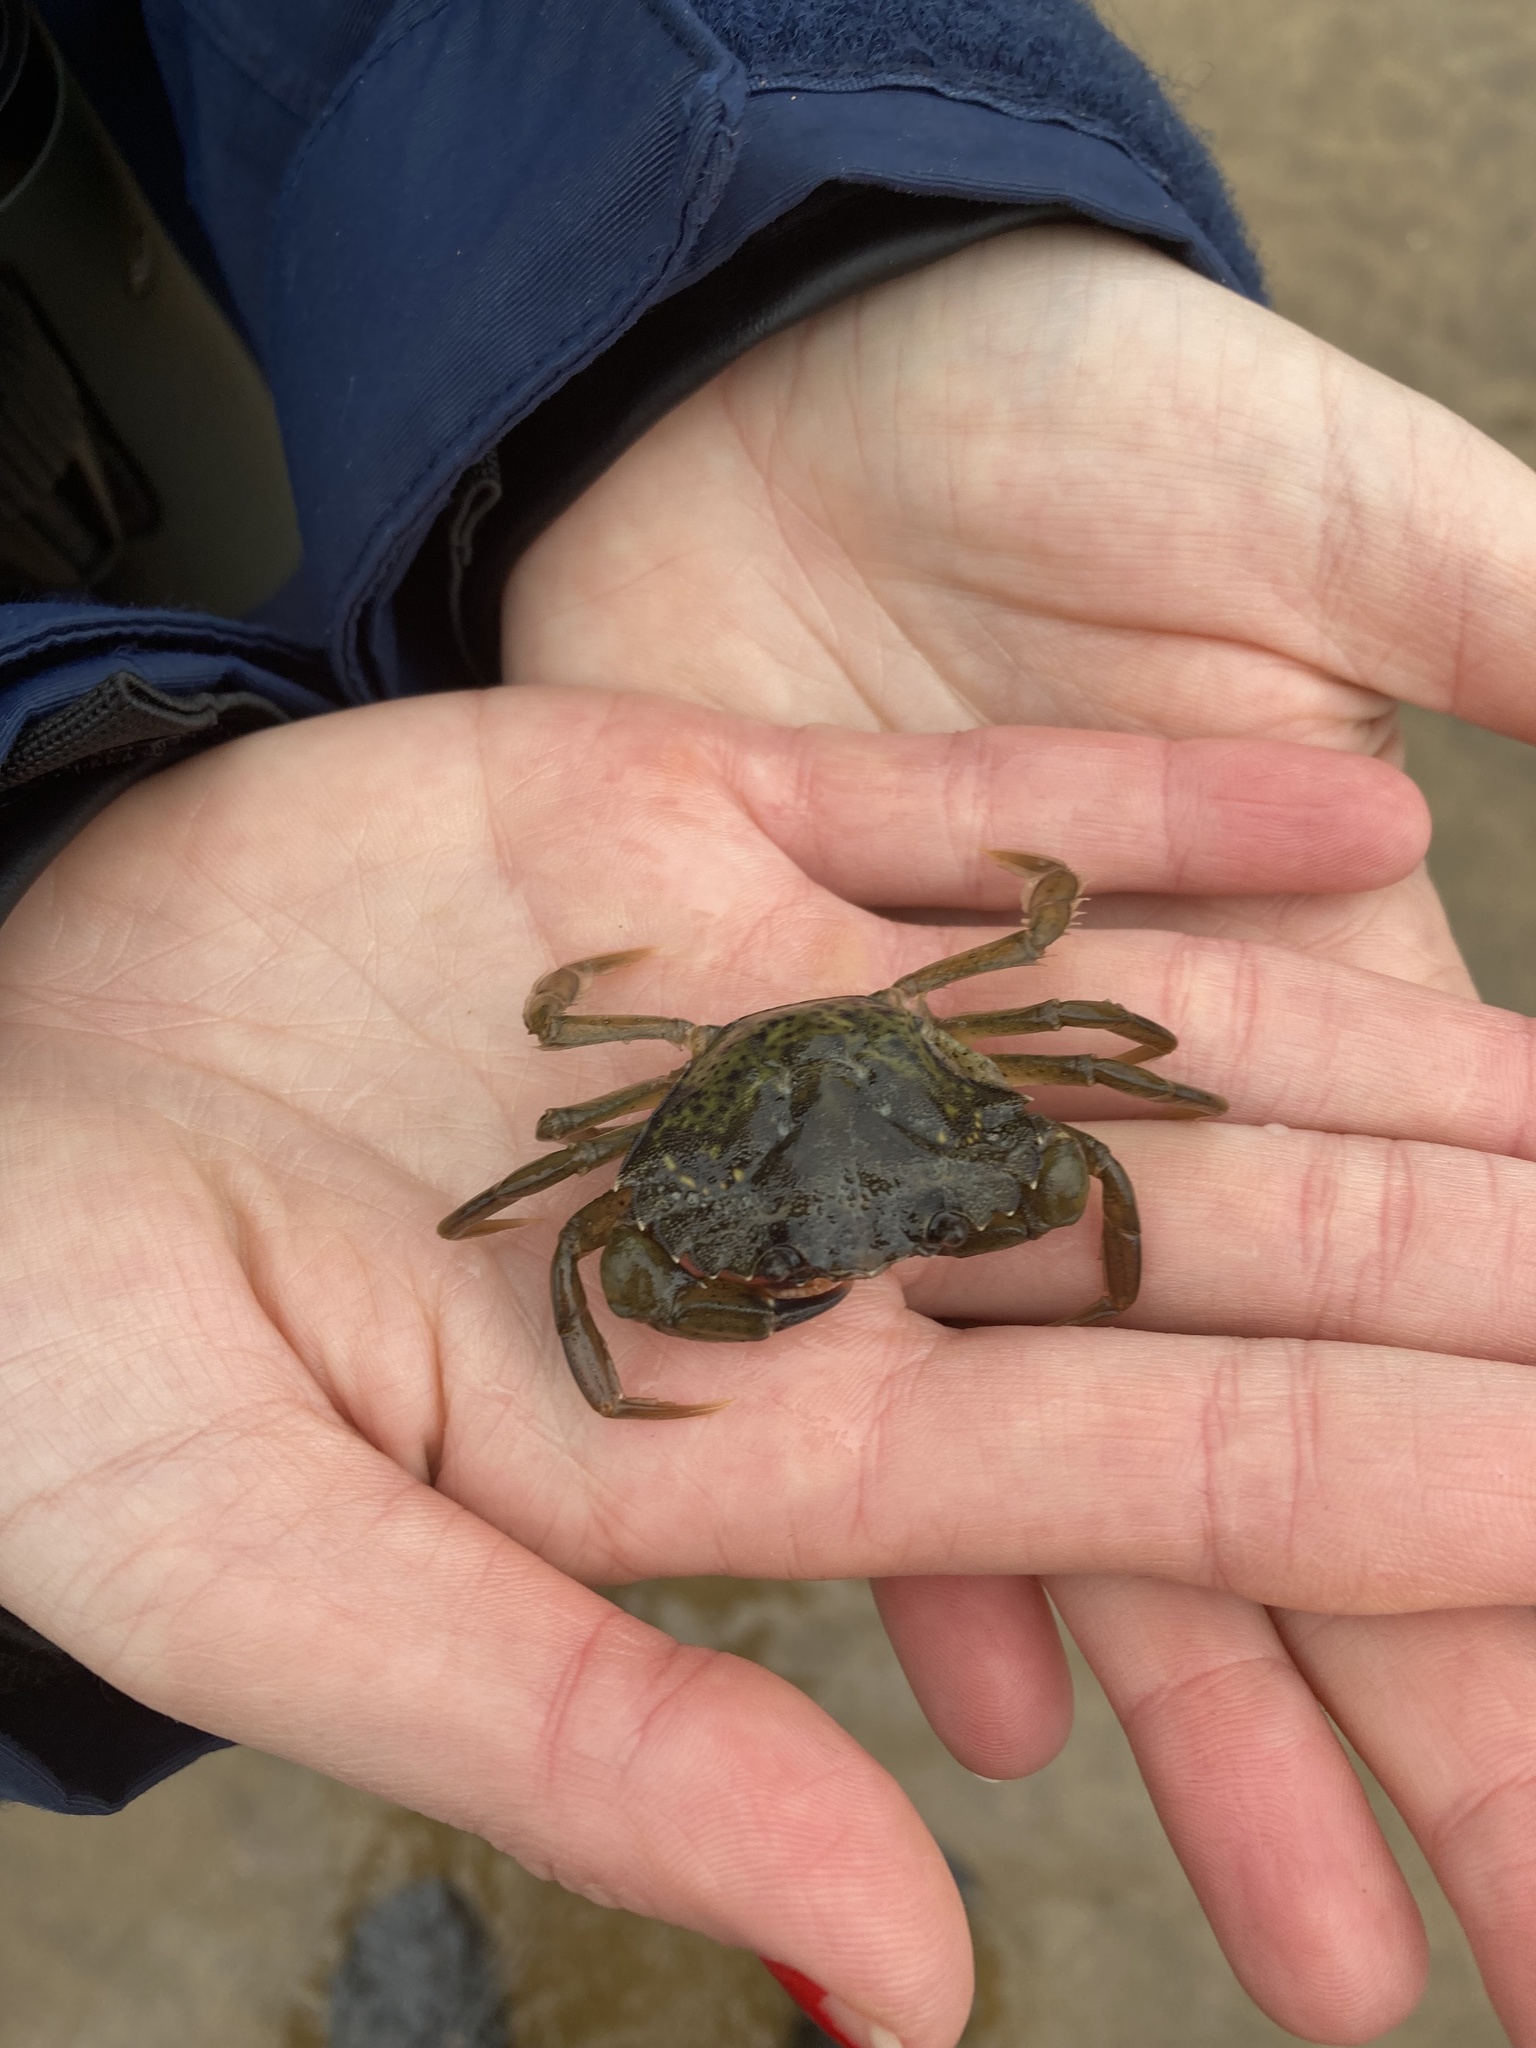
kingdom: Animalia
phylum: Arthropoda
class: Malacostraca
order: Decapoda
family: Carcinidae
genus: Carcinus
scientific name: Carcinus maenas
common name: European green crab
